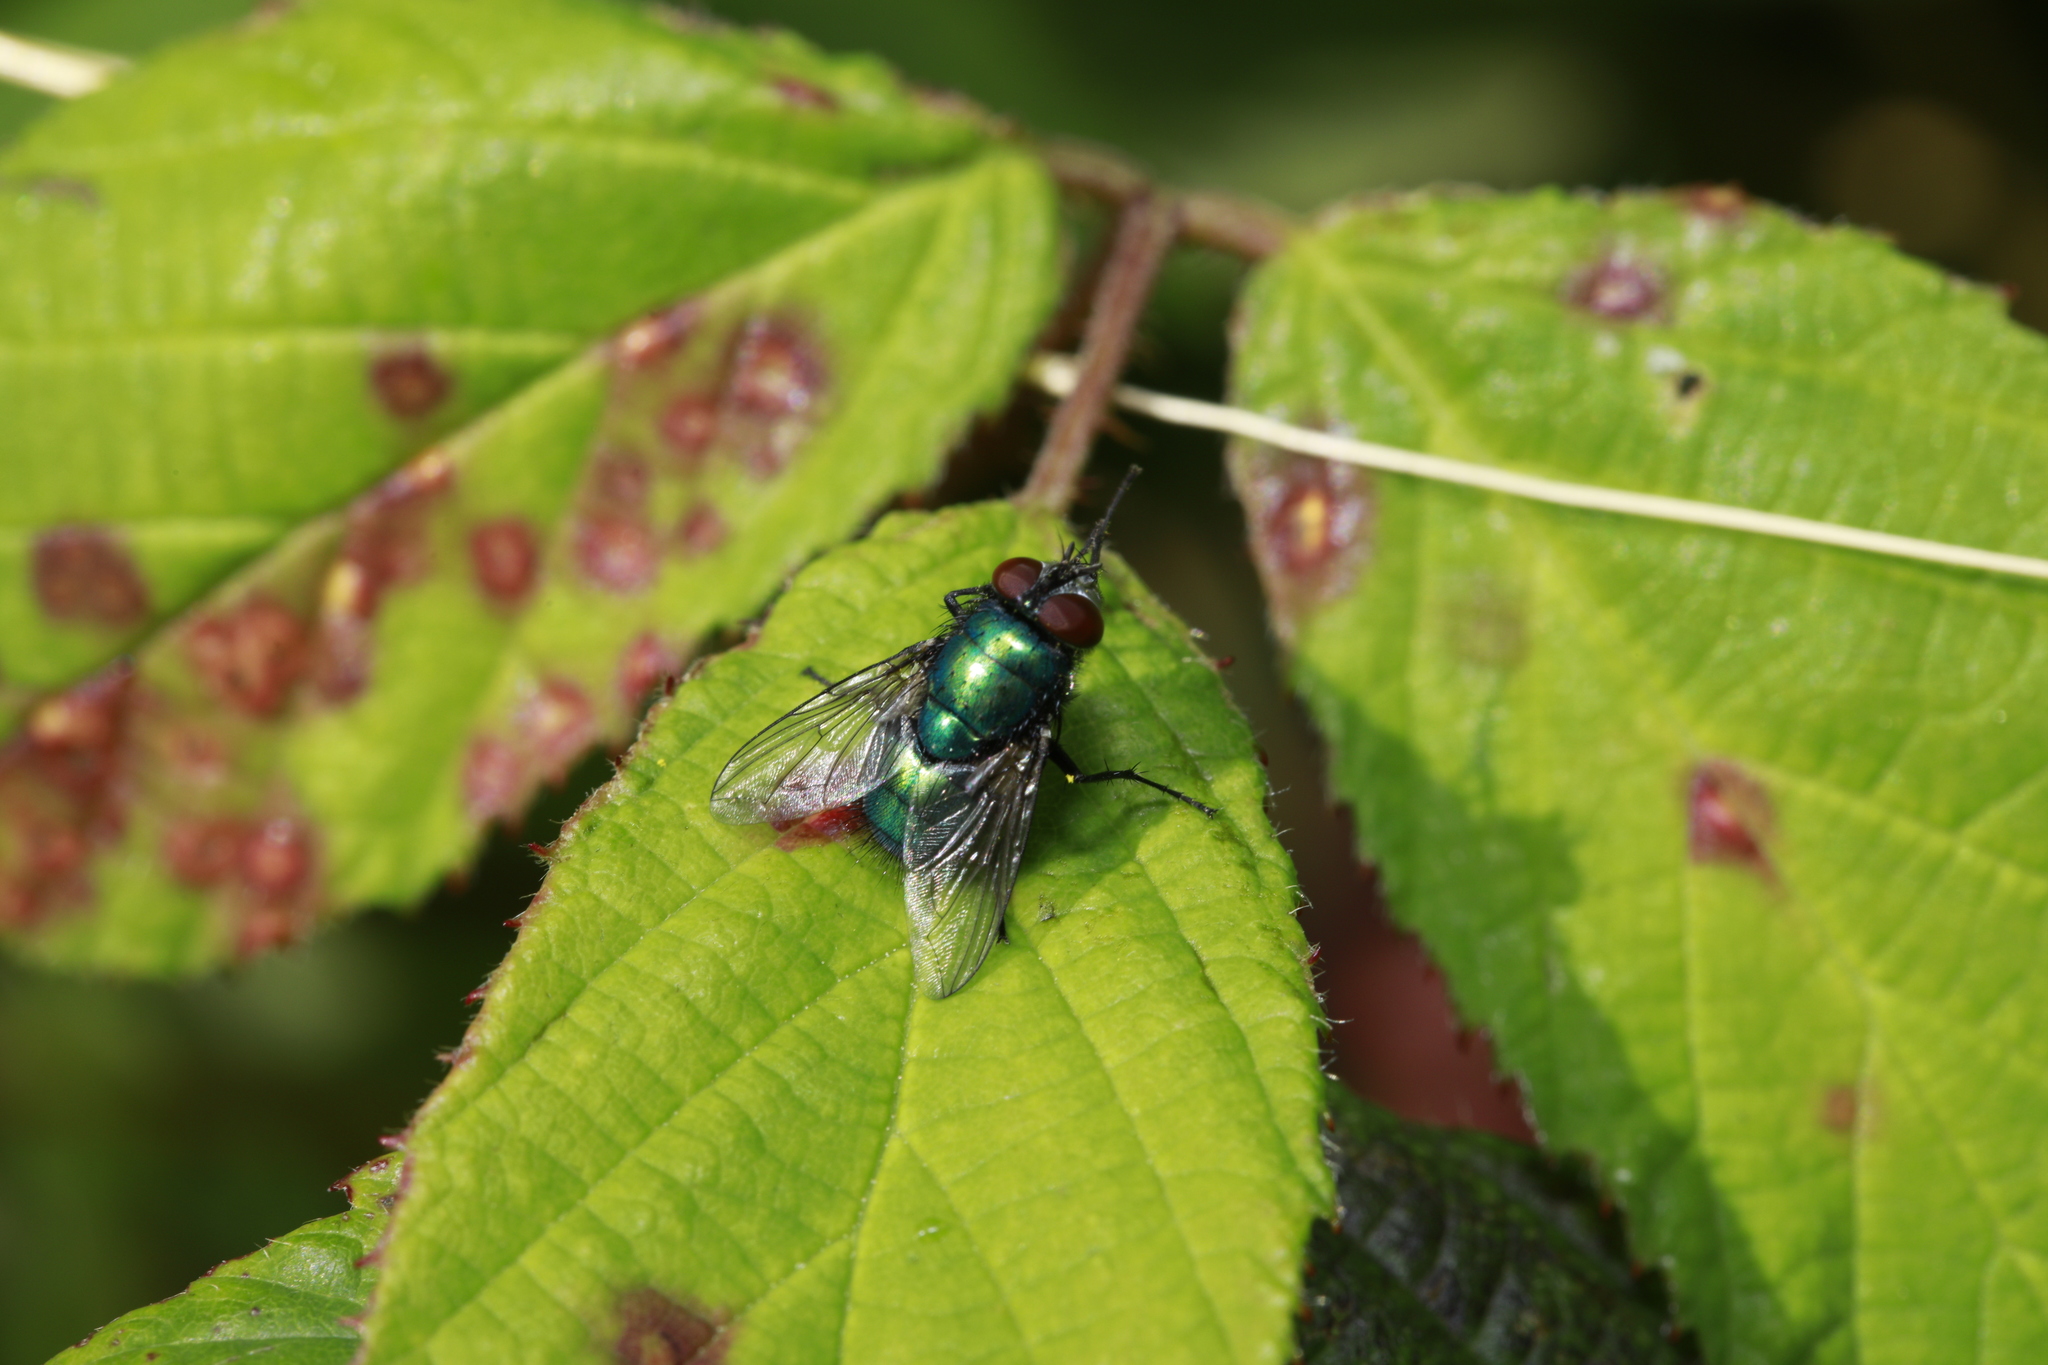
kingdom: Animalia
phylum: Arthropoda
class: Insecta
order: Diptera
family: Calliphoridae
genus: Lucilia
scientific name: Lucilia sericata
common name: Blow fly
